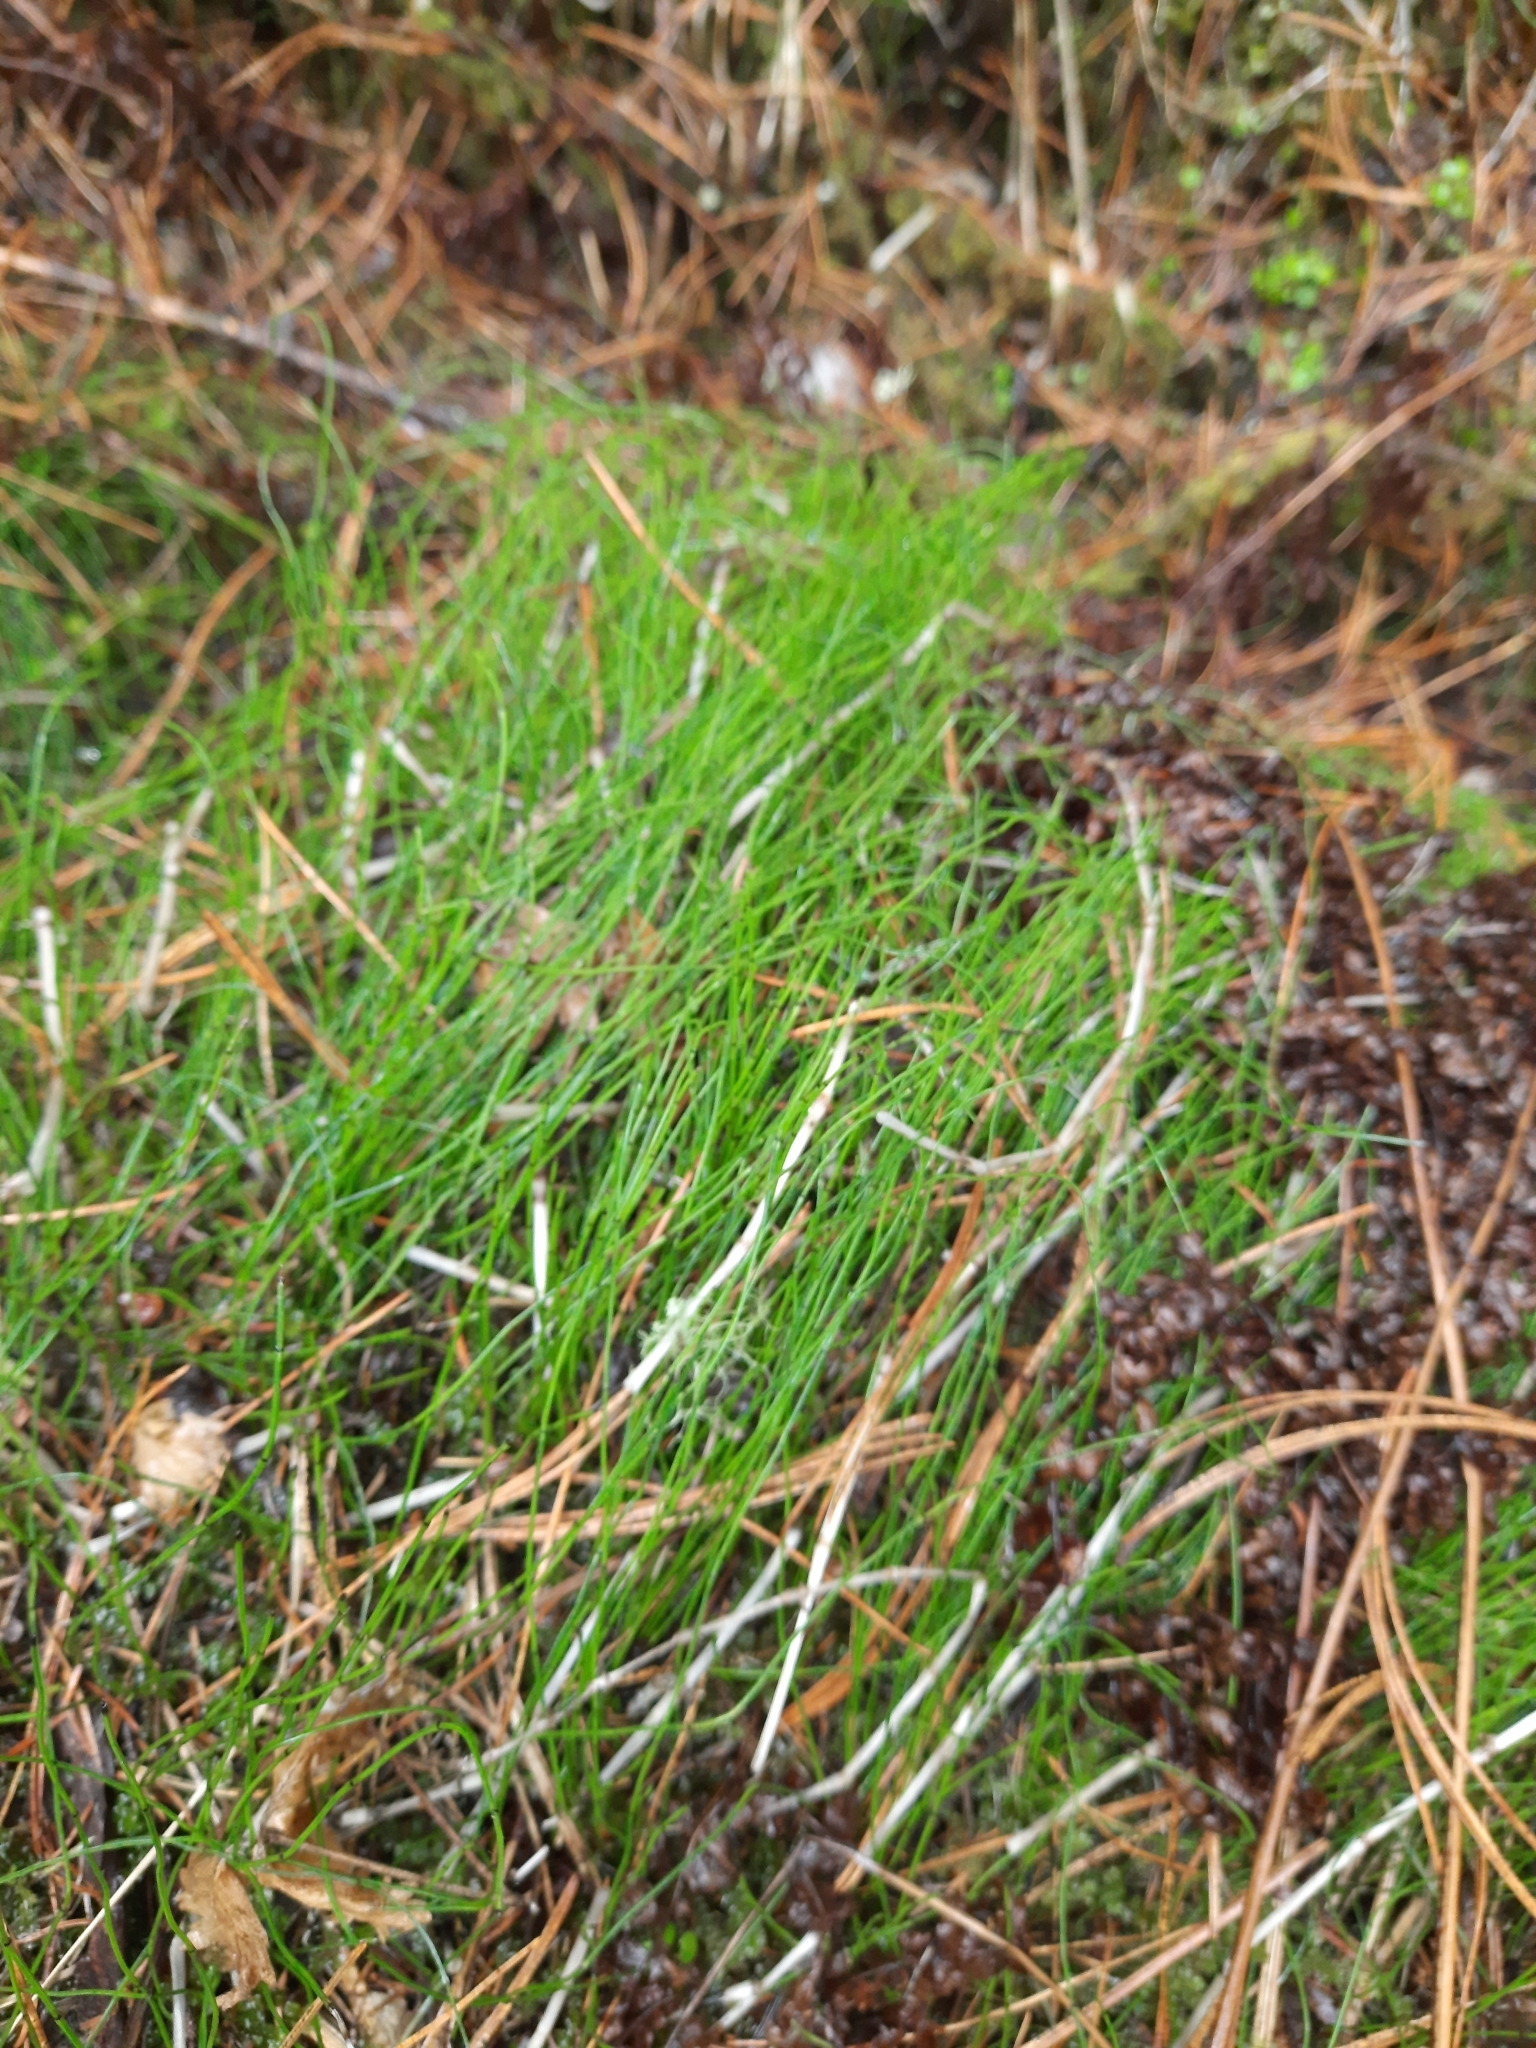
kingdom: Plantae
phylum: Tracheophyta
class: Polypodiopsida
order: Equisetales
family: Equisetaceae
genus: Equisetum
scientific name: Equisetum scirpoides
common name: Delicate horsetail
